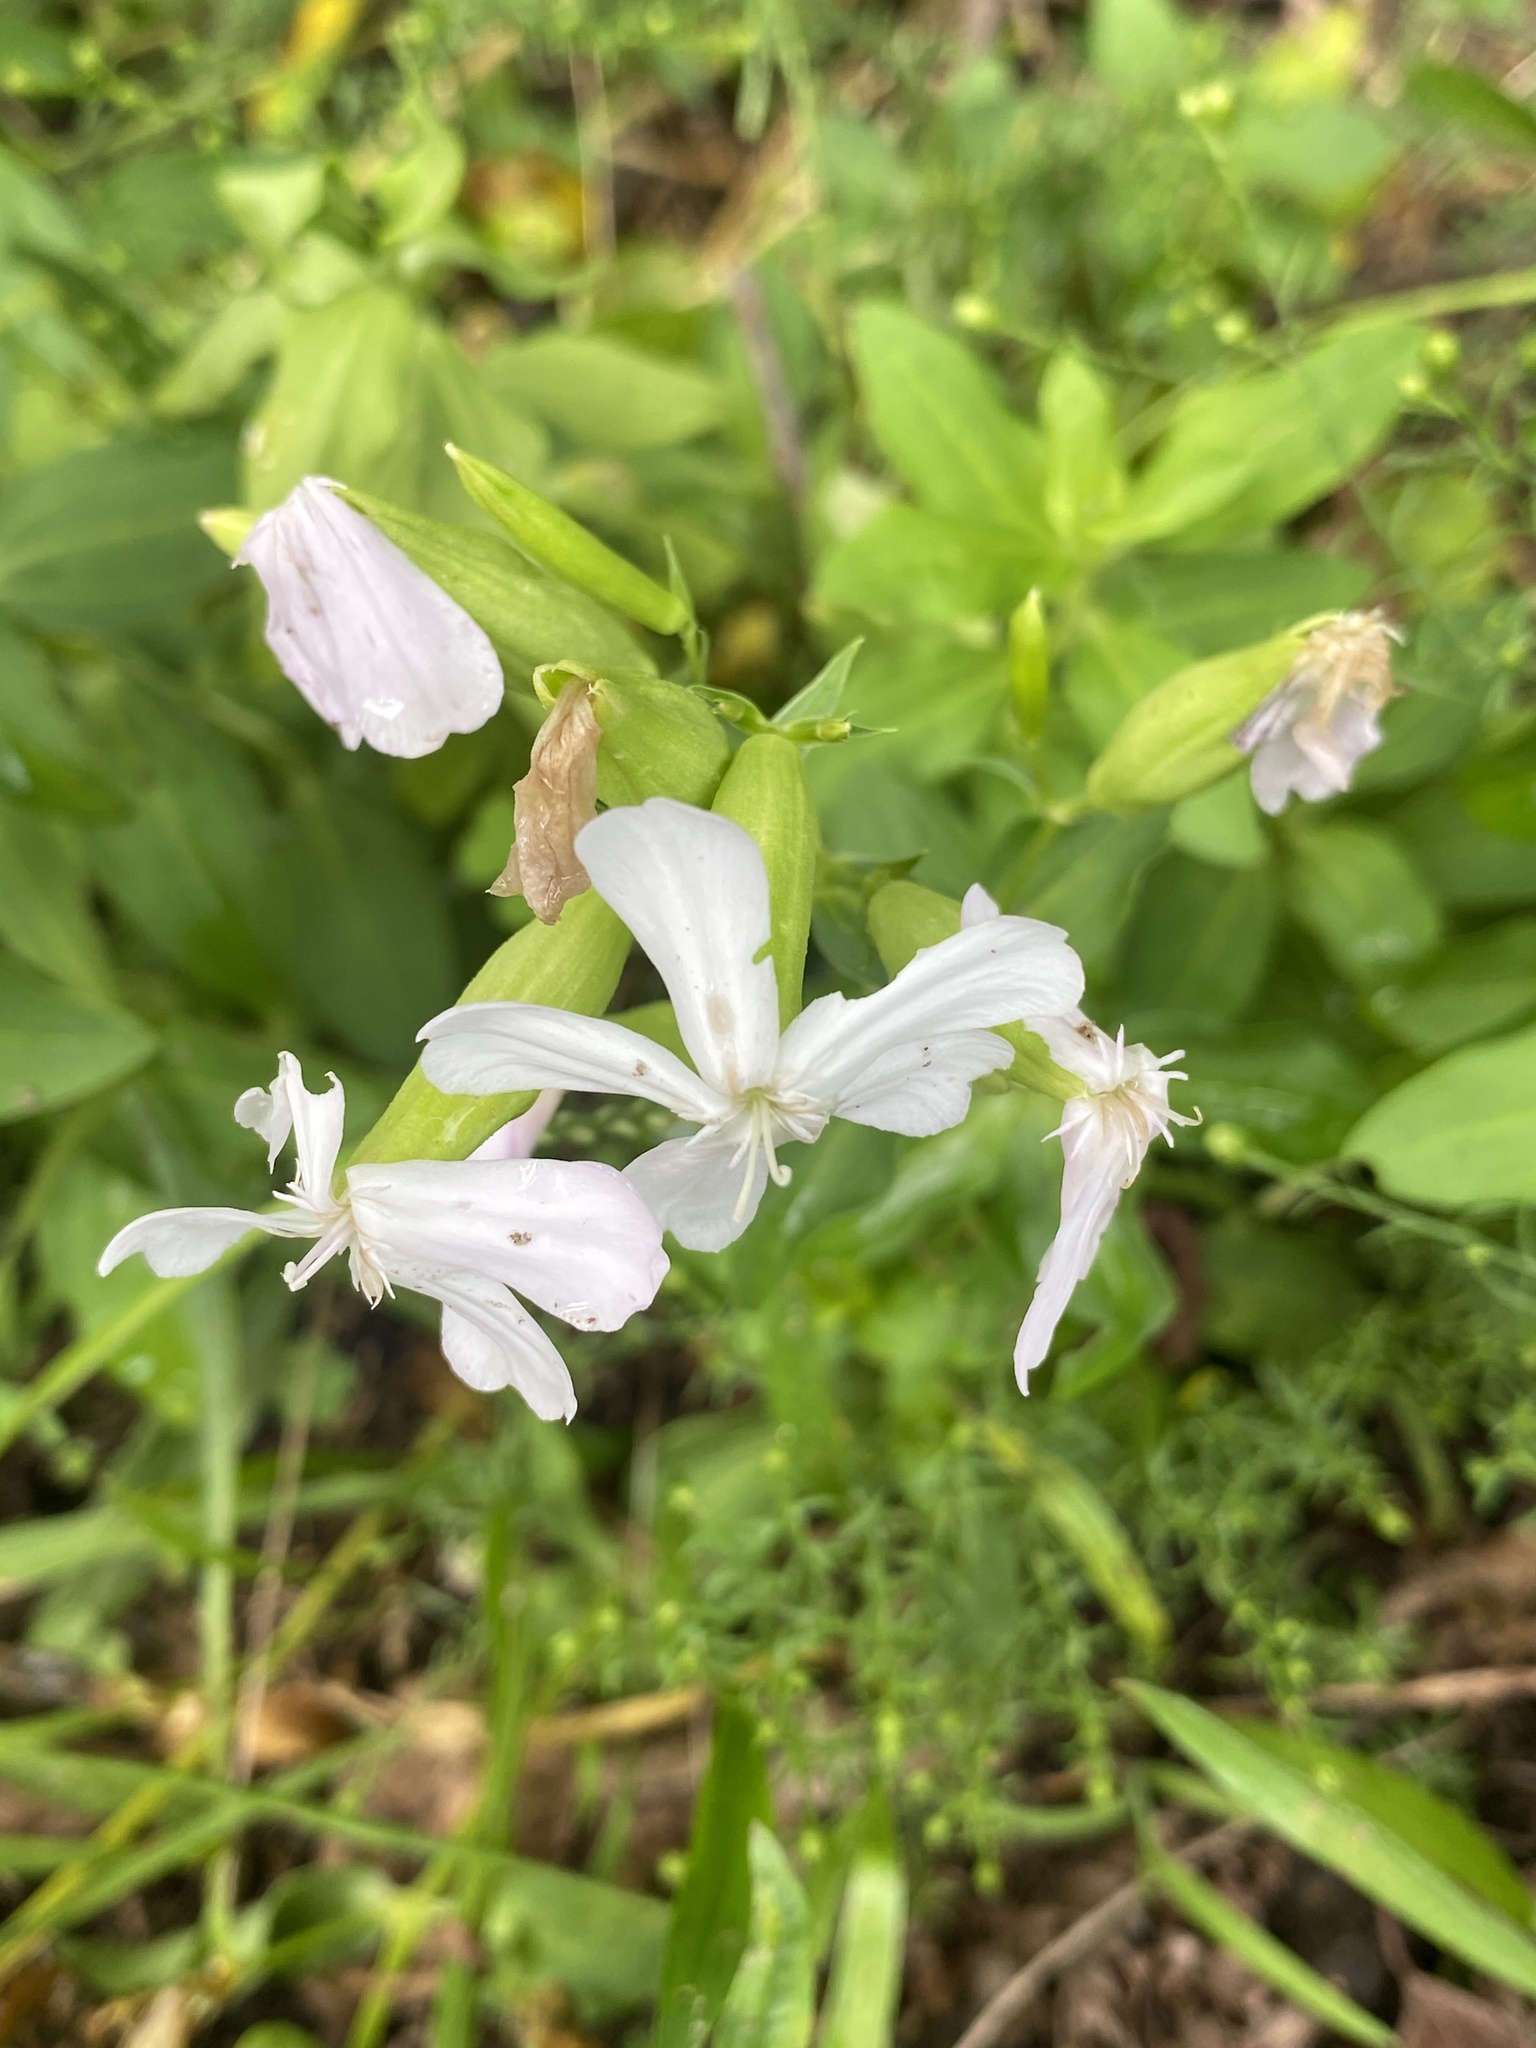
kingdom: Plantae
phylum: Tracheophyta
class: Magnoliopsida
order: Caryophyllales
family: Caryophyllaceae
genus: Saponaria
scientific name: Saponaria officinalis
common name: Soapwort
